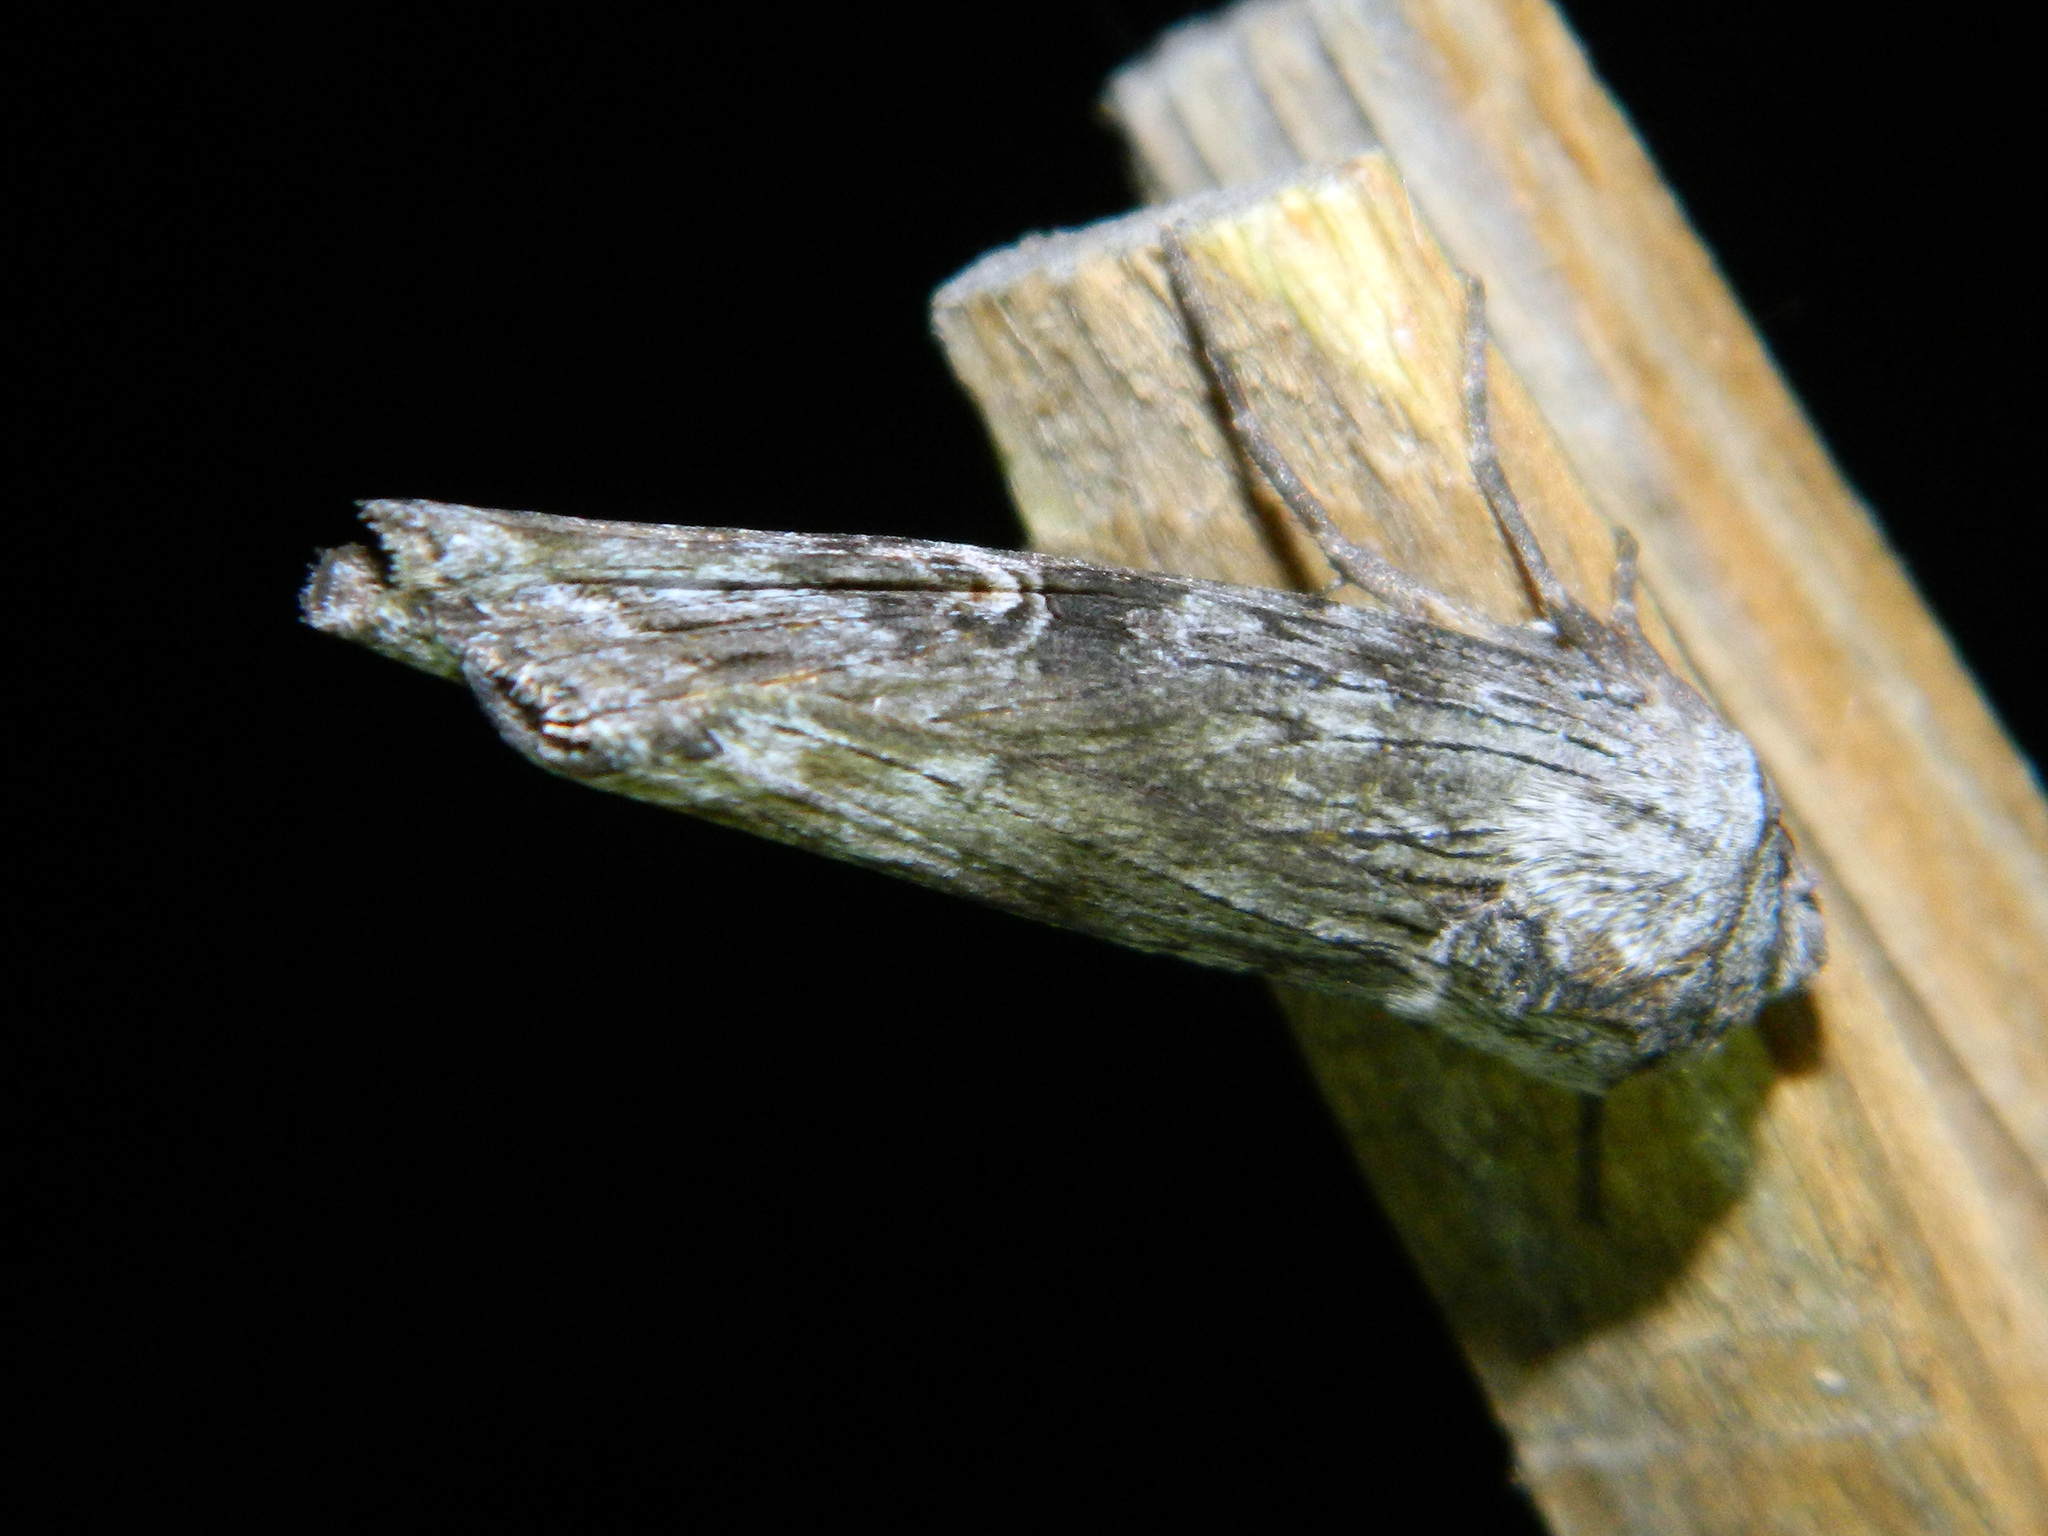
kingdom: Animalia
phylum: Arthropoda
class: Insecta
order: Lepidoptera
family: Noctuidae
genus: Xylena
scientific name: Xylena germana
